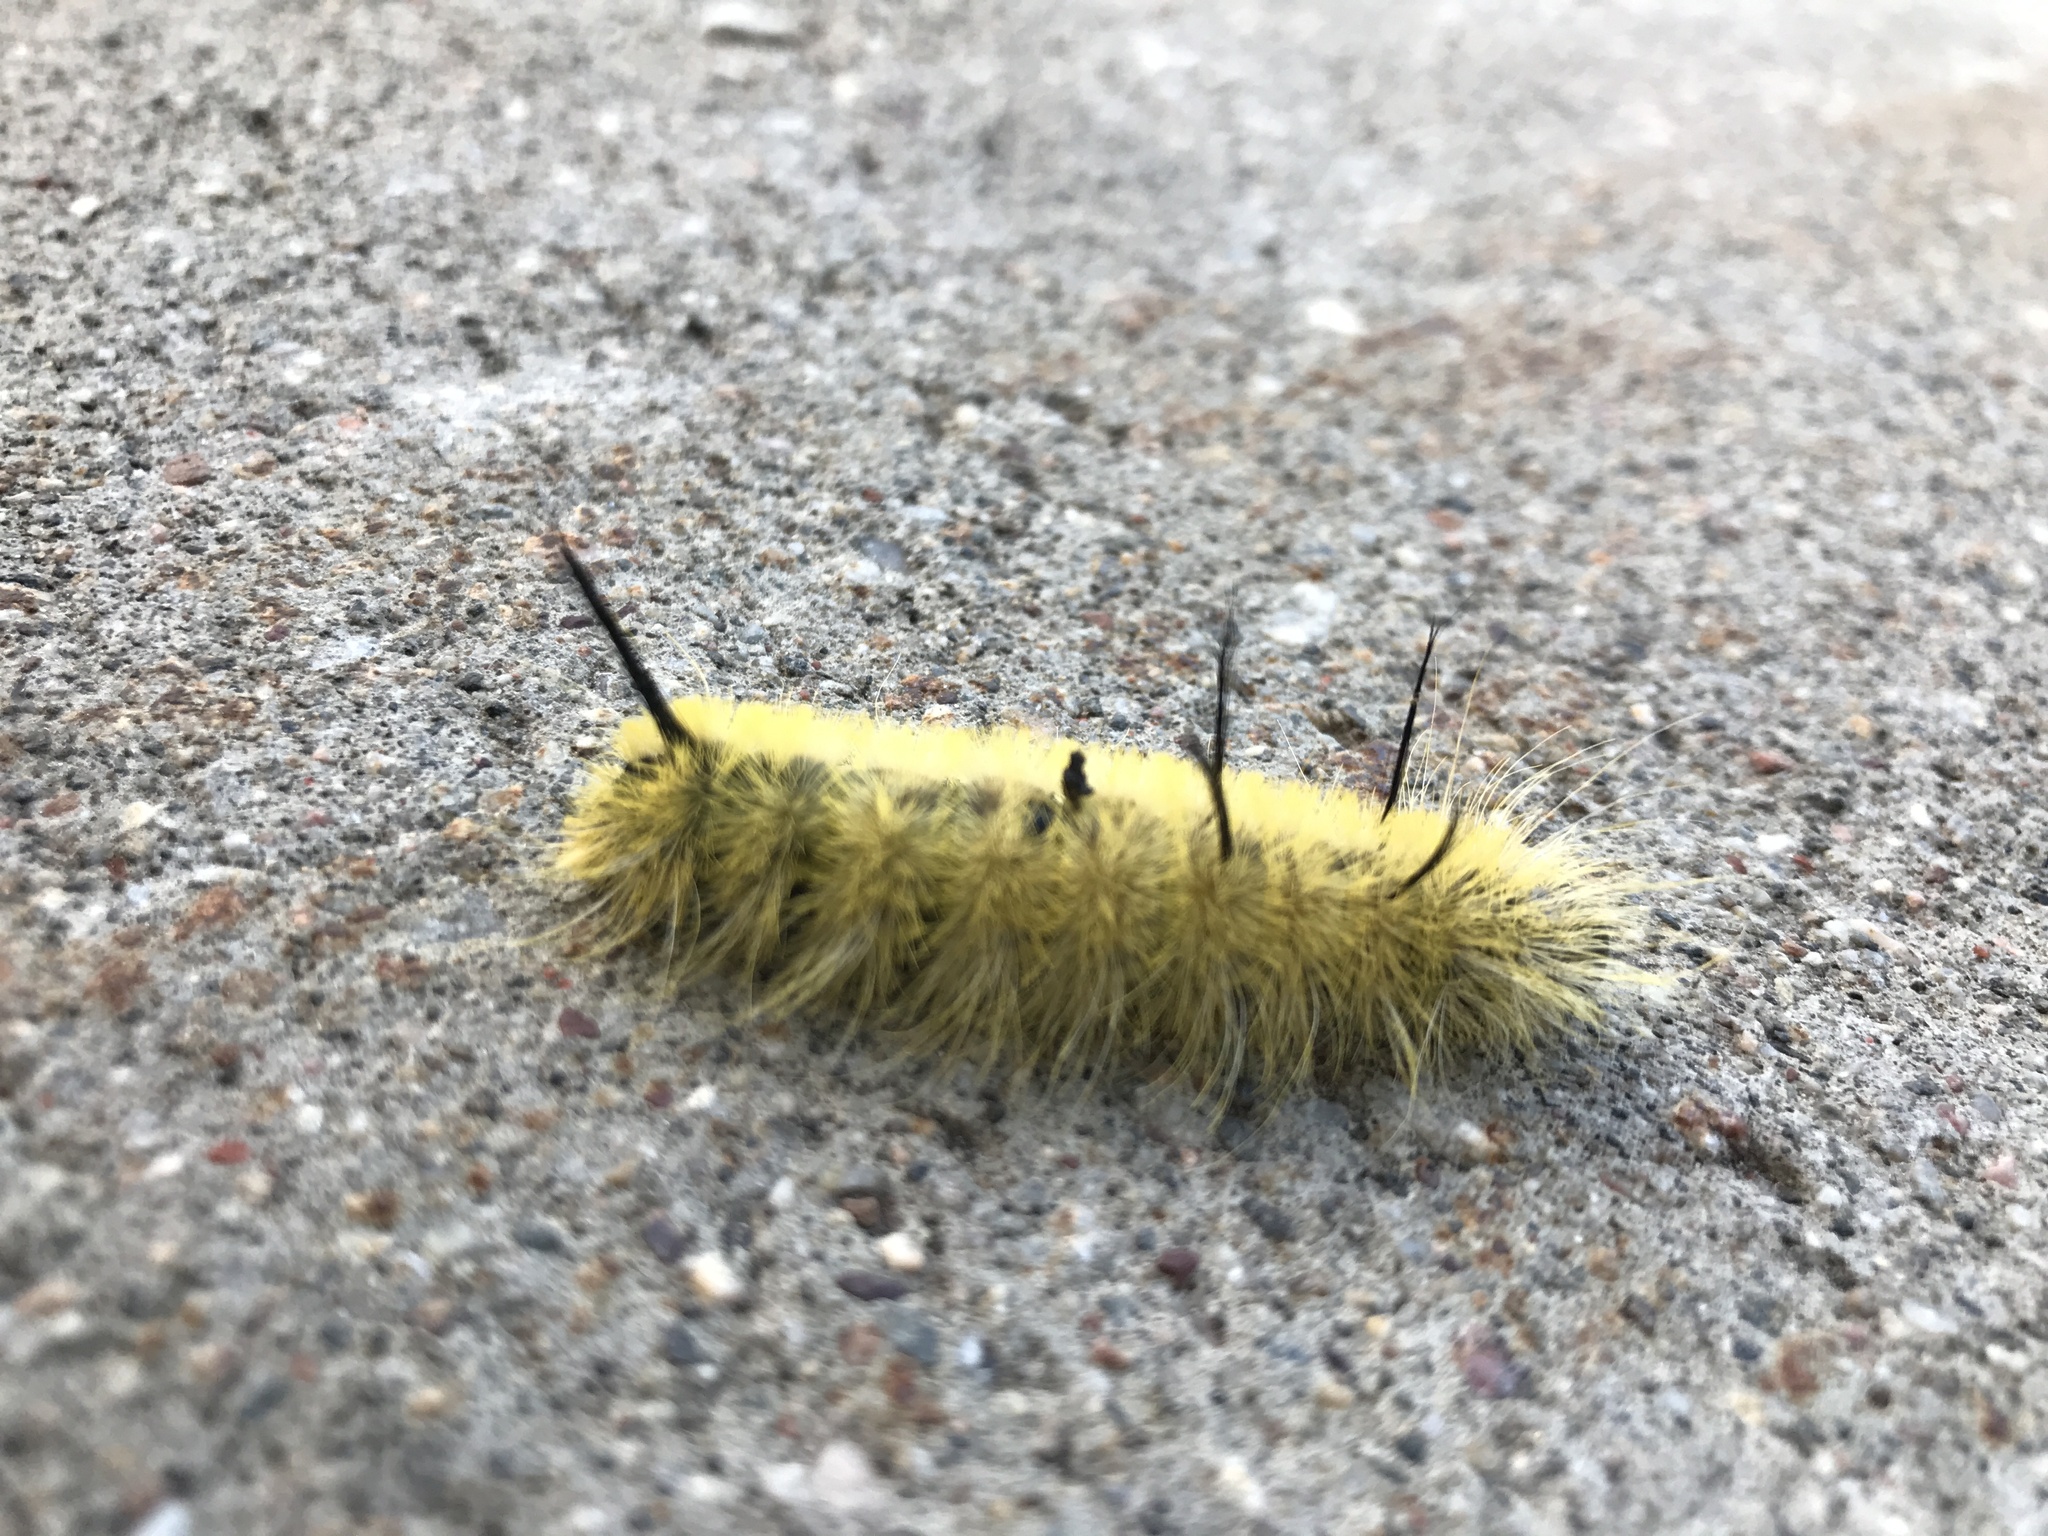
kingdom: Animalia
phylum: Arthropoda
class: Insecta
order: Lepidoptera
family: Noctuidae
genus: Acronicta
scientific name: Acronicta americana
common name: American dagger
